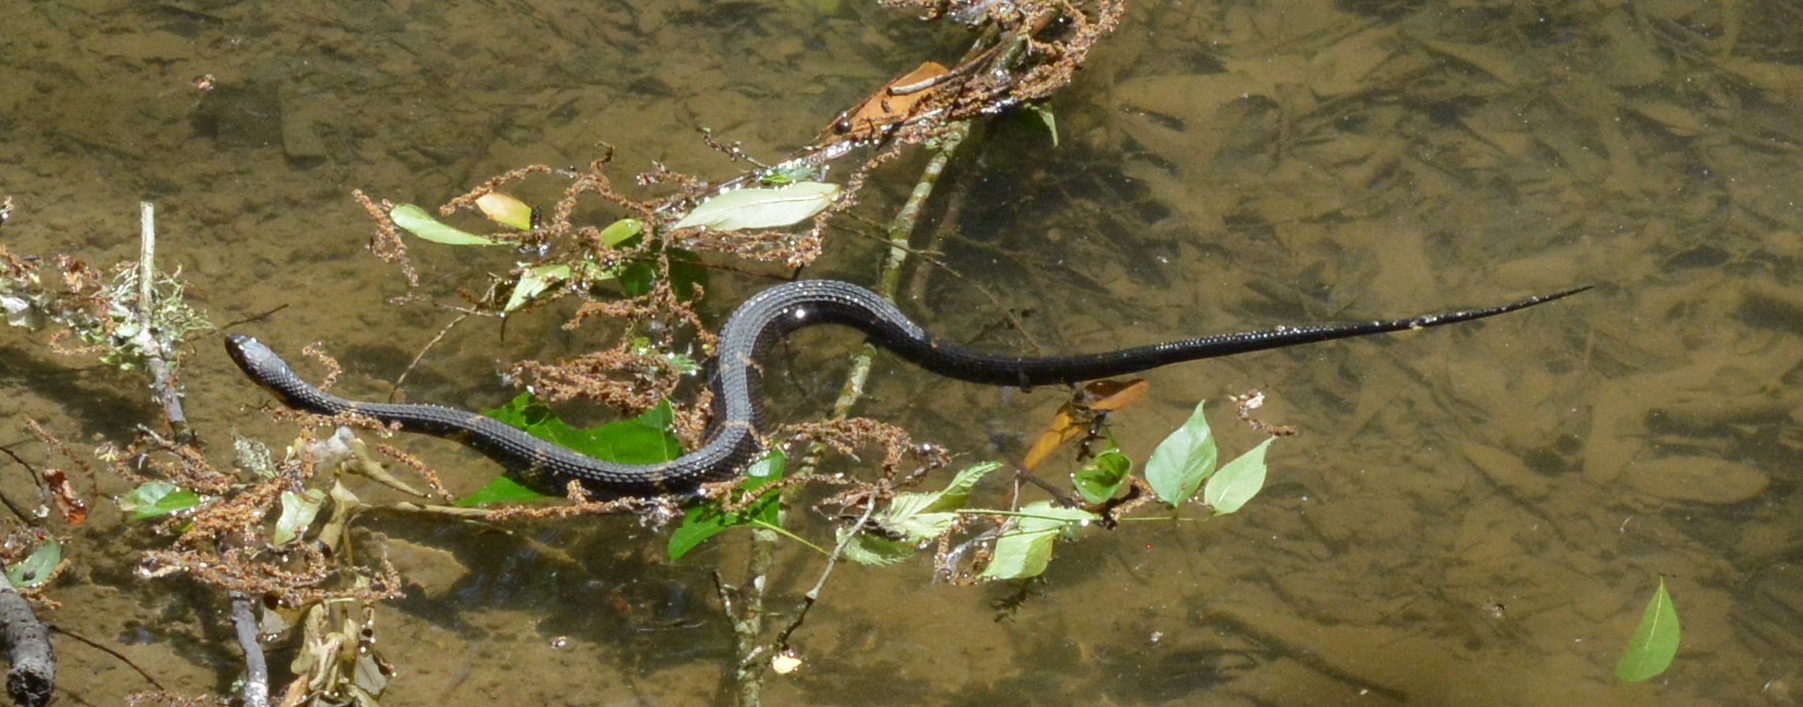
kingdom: Animalia
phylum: Chordata
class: Squamata
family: Colubridae
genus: Nerodia
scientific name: Nerodia fasciata
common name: Southern water snake
